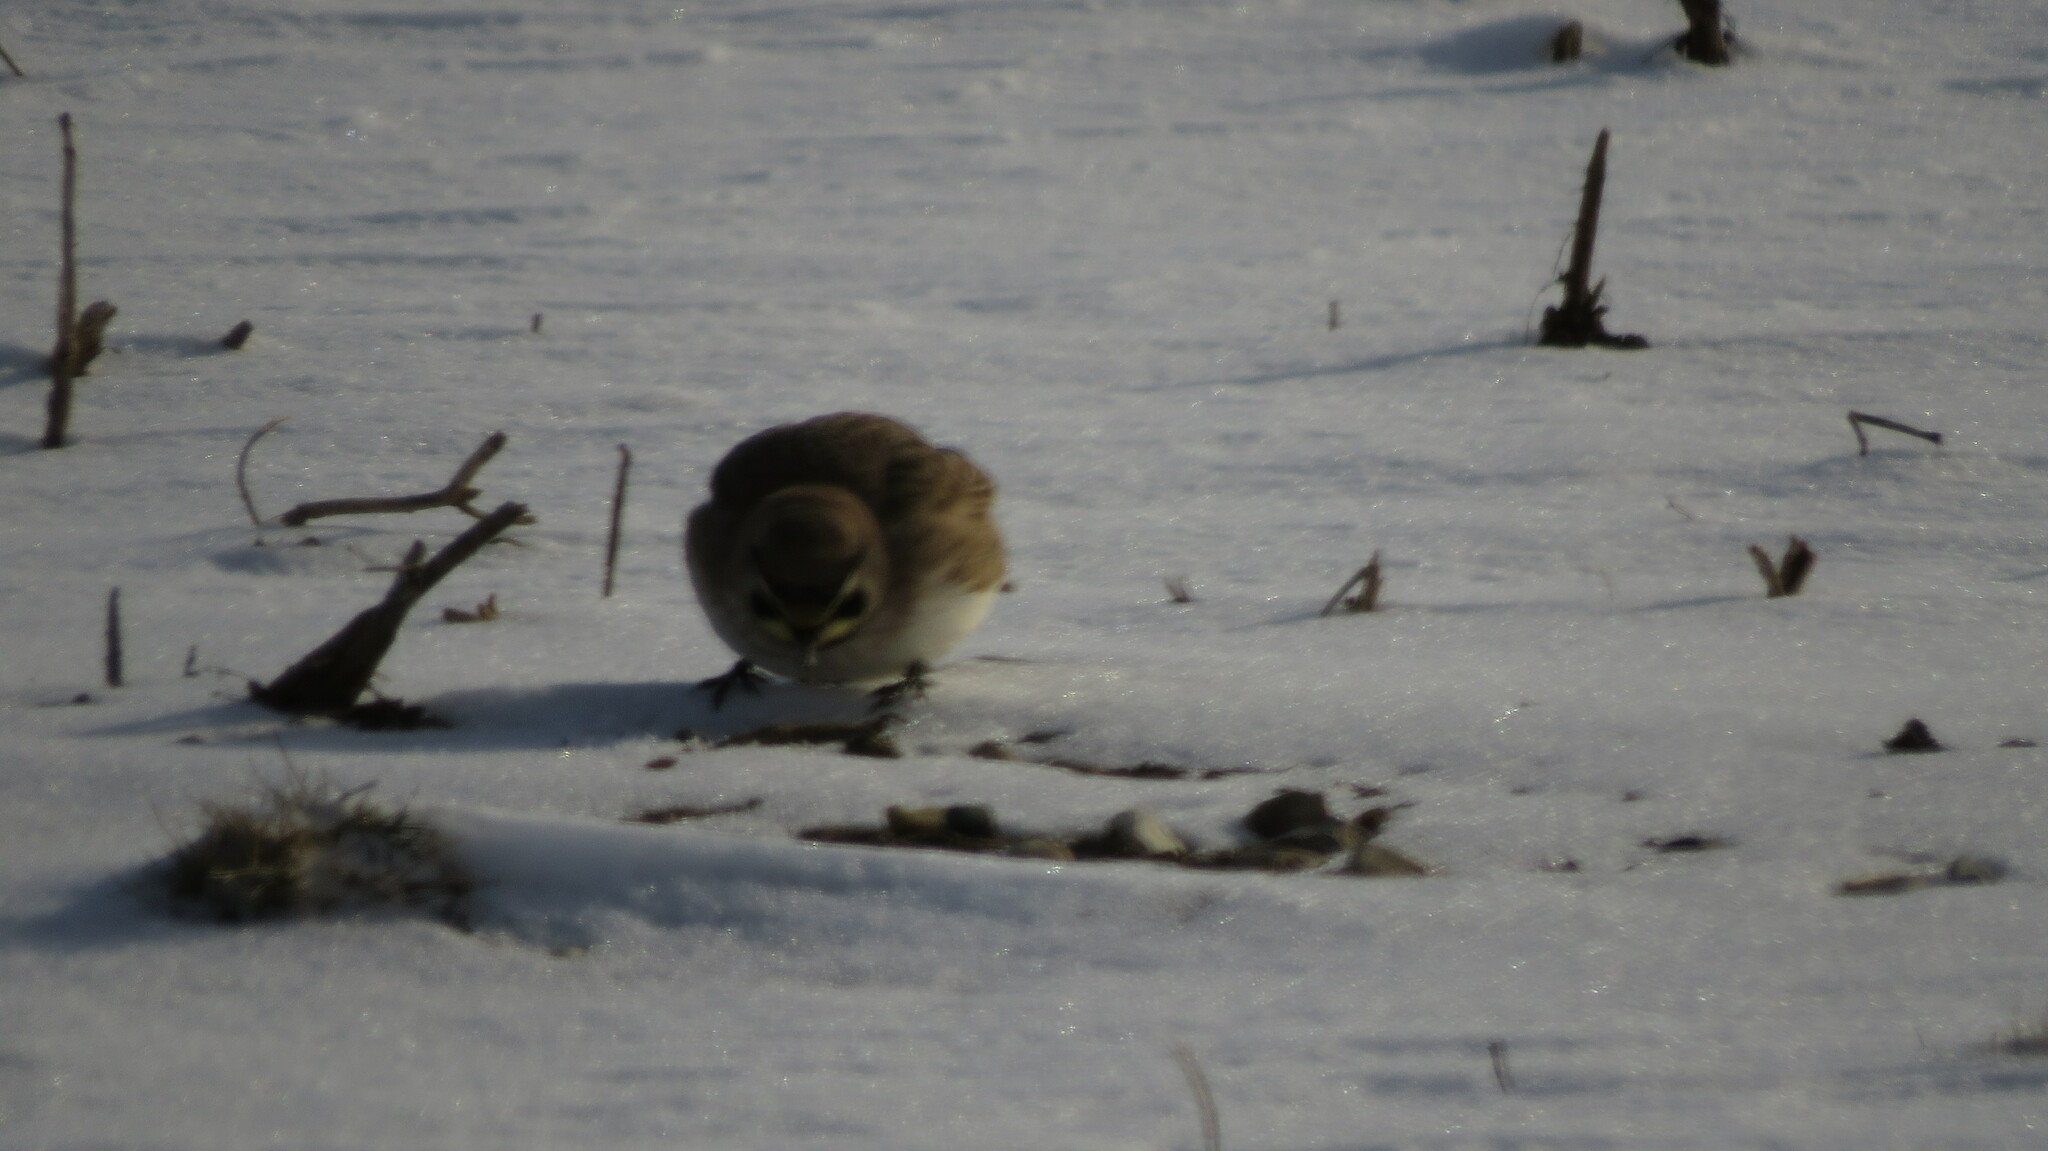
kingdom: Animalia
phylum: Chordata
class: Aves
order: Passeriformes
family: Alaudidae
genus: Eremophila
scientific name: Eremophila alpestris
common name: Horned lark
